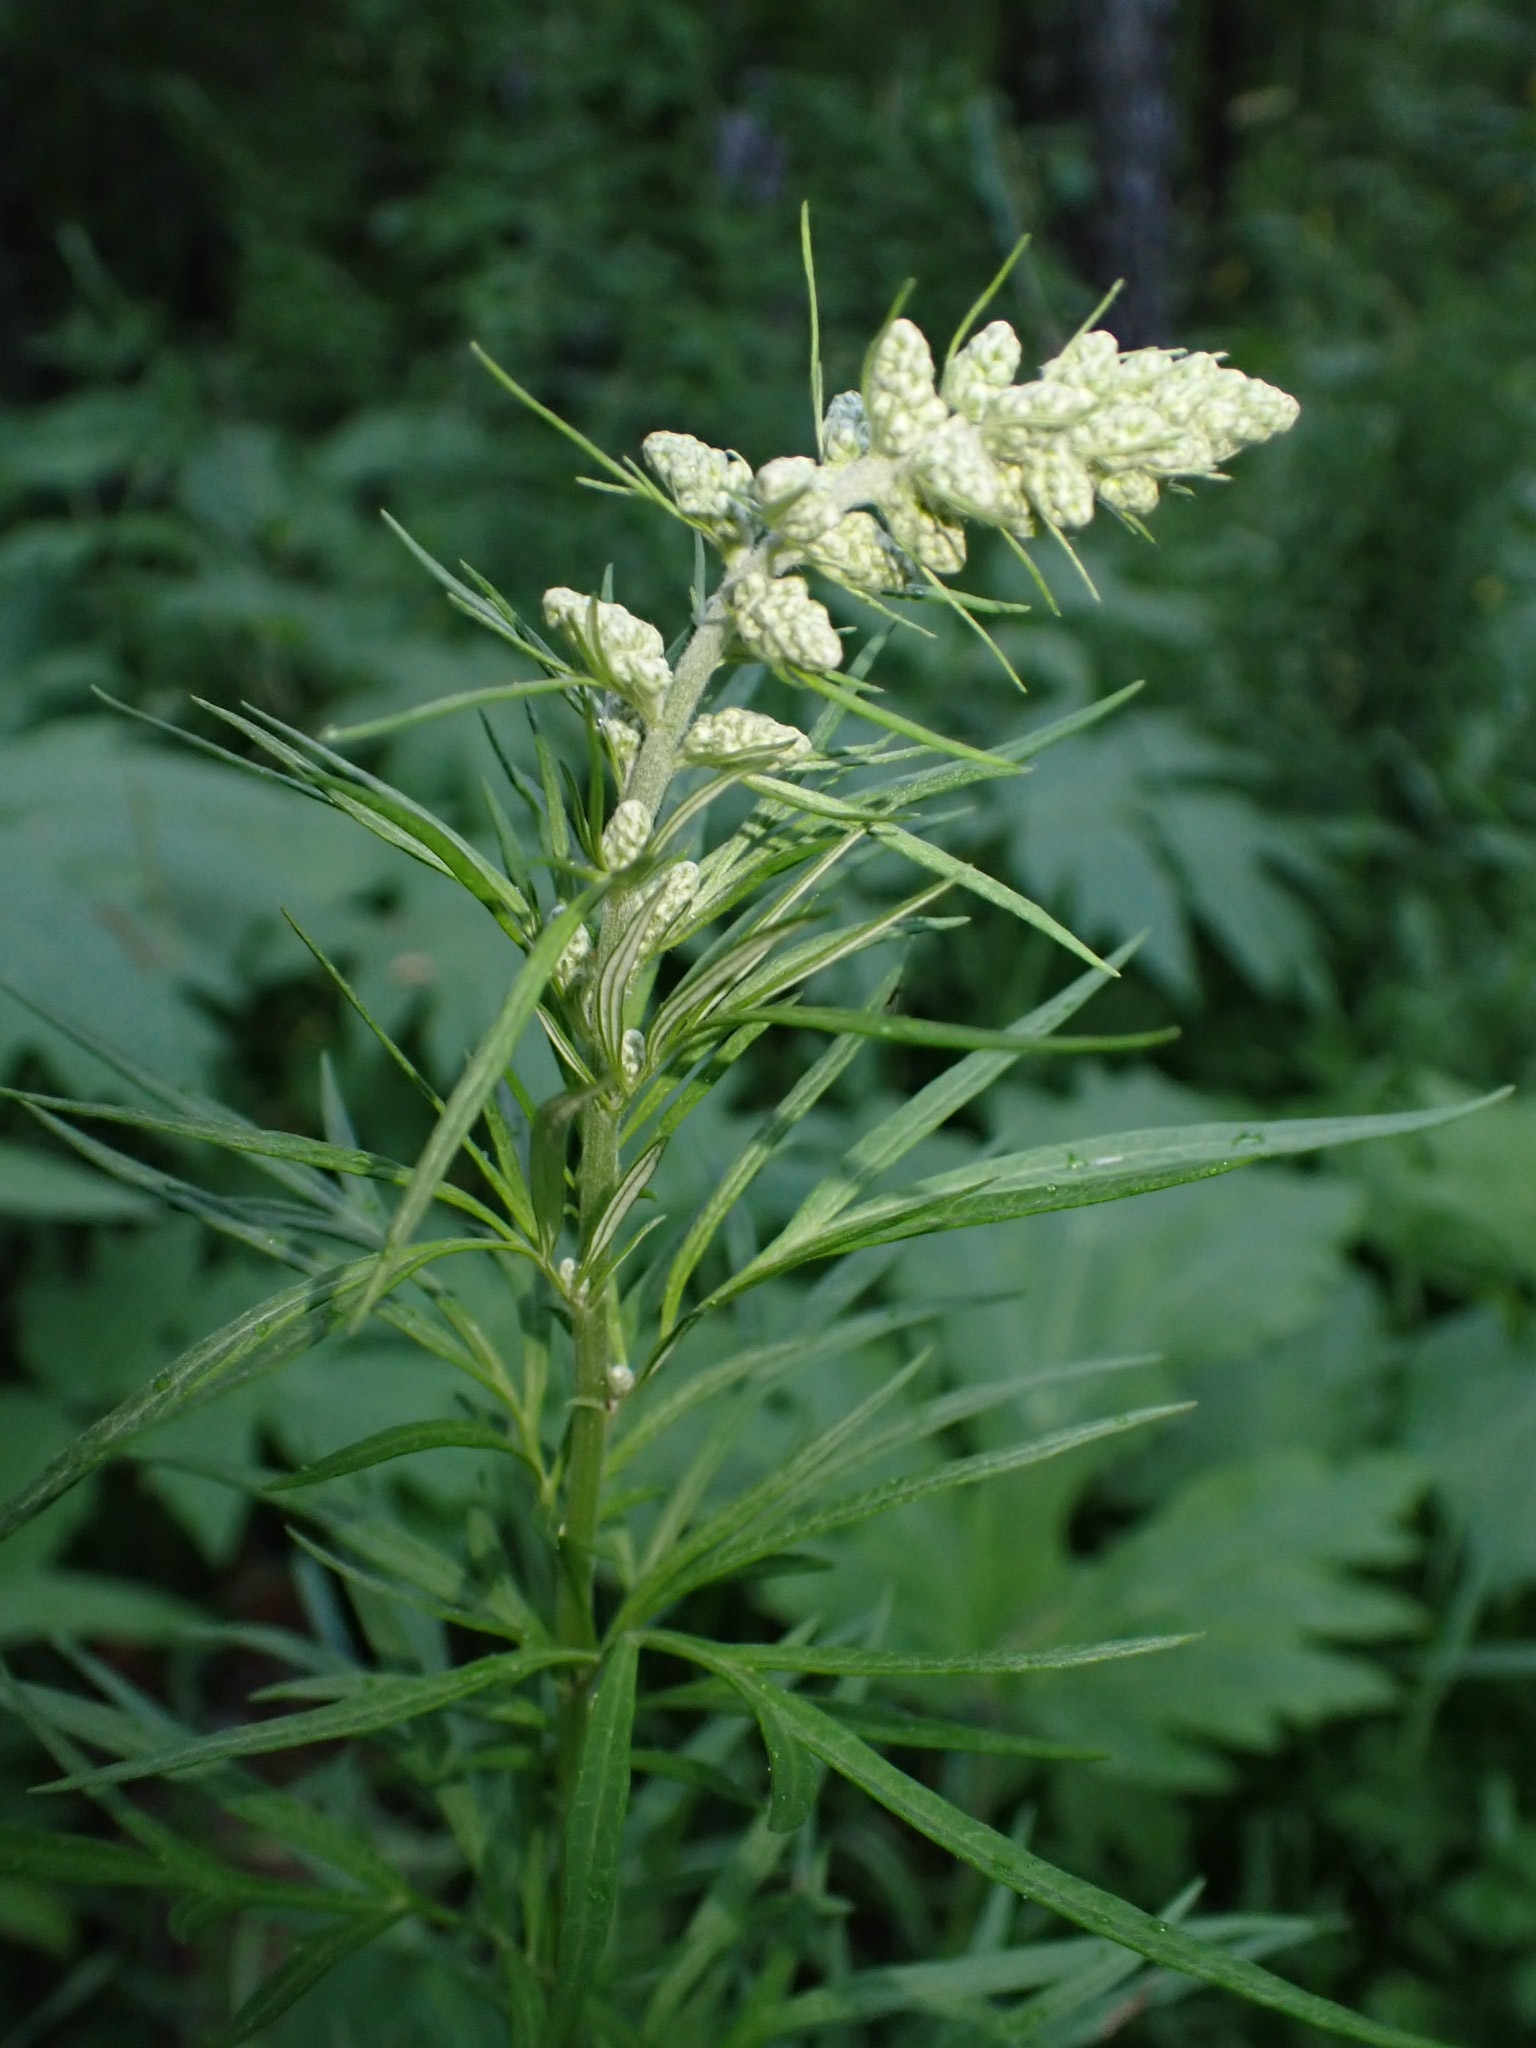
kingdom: Plantae
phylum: Tracheophyta
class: Magnoliopsida
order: Asterales
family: Asteraceae
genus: Artemisia
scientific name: Artemisia vulgaris
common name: Mugwort
